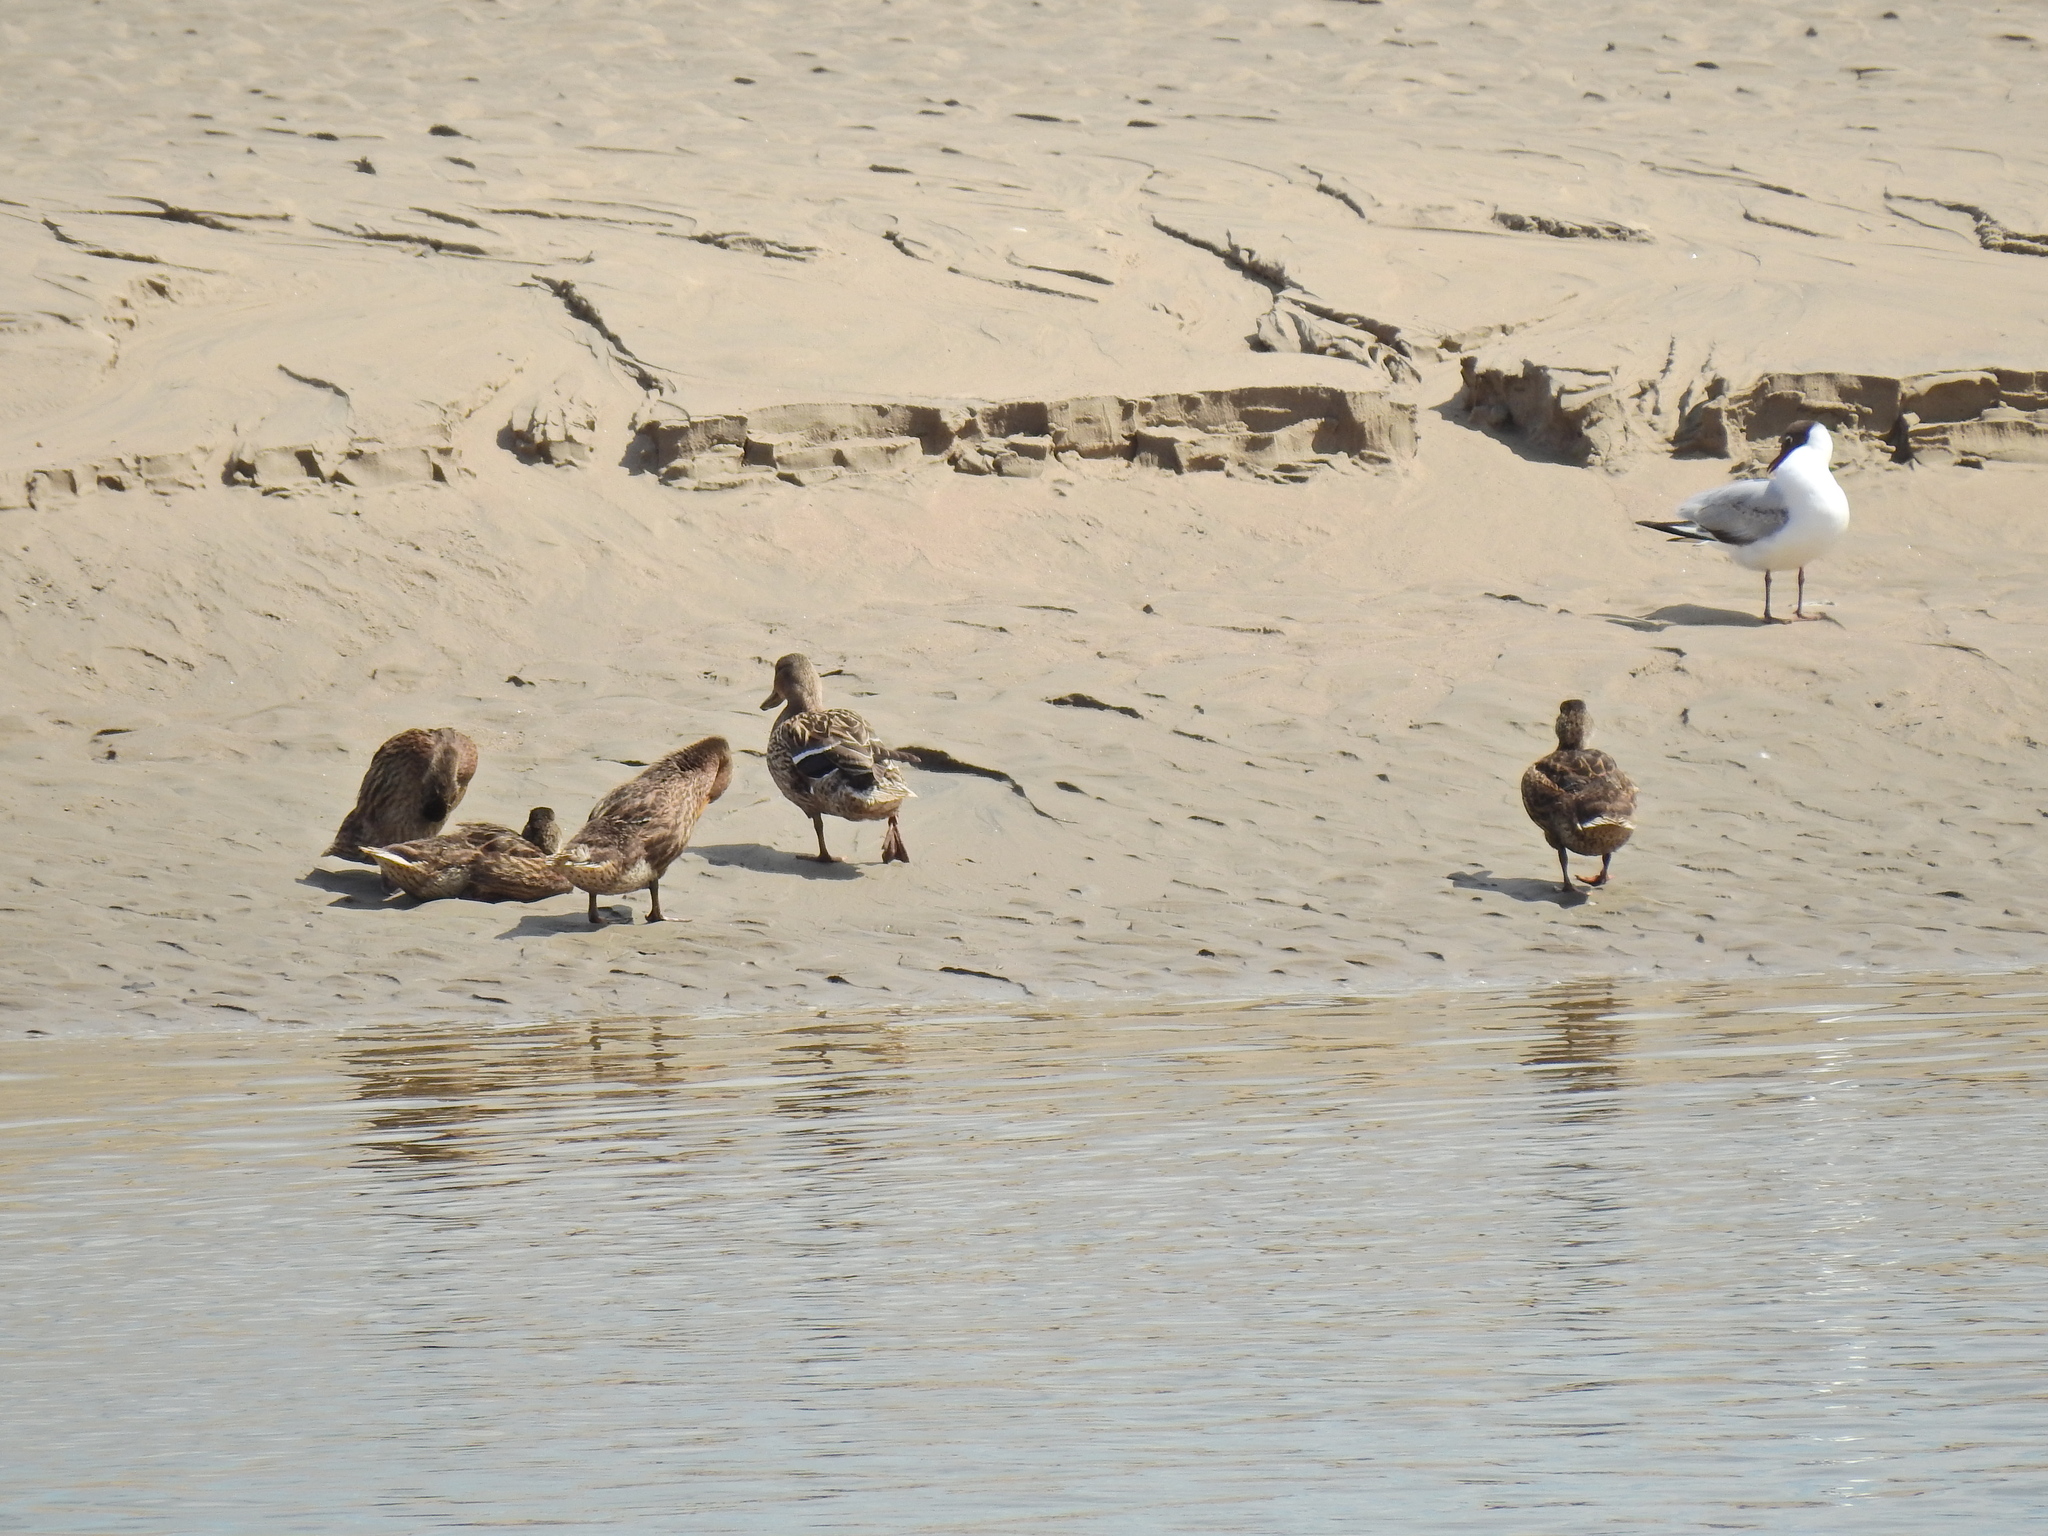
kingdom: Animalia
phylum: Chordata
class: Aves
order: Anseriformes
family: Anatidae
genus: Anas
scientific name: Anas platyrhynchos
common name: Mallard
